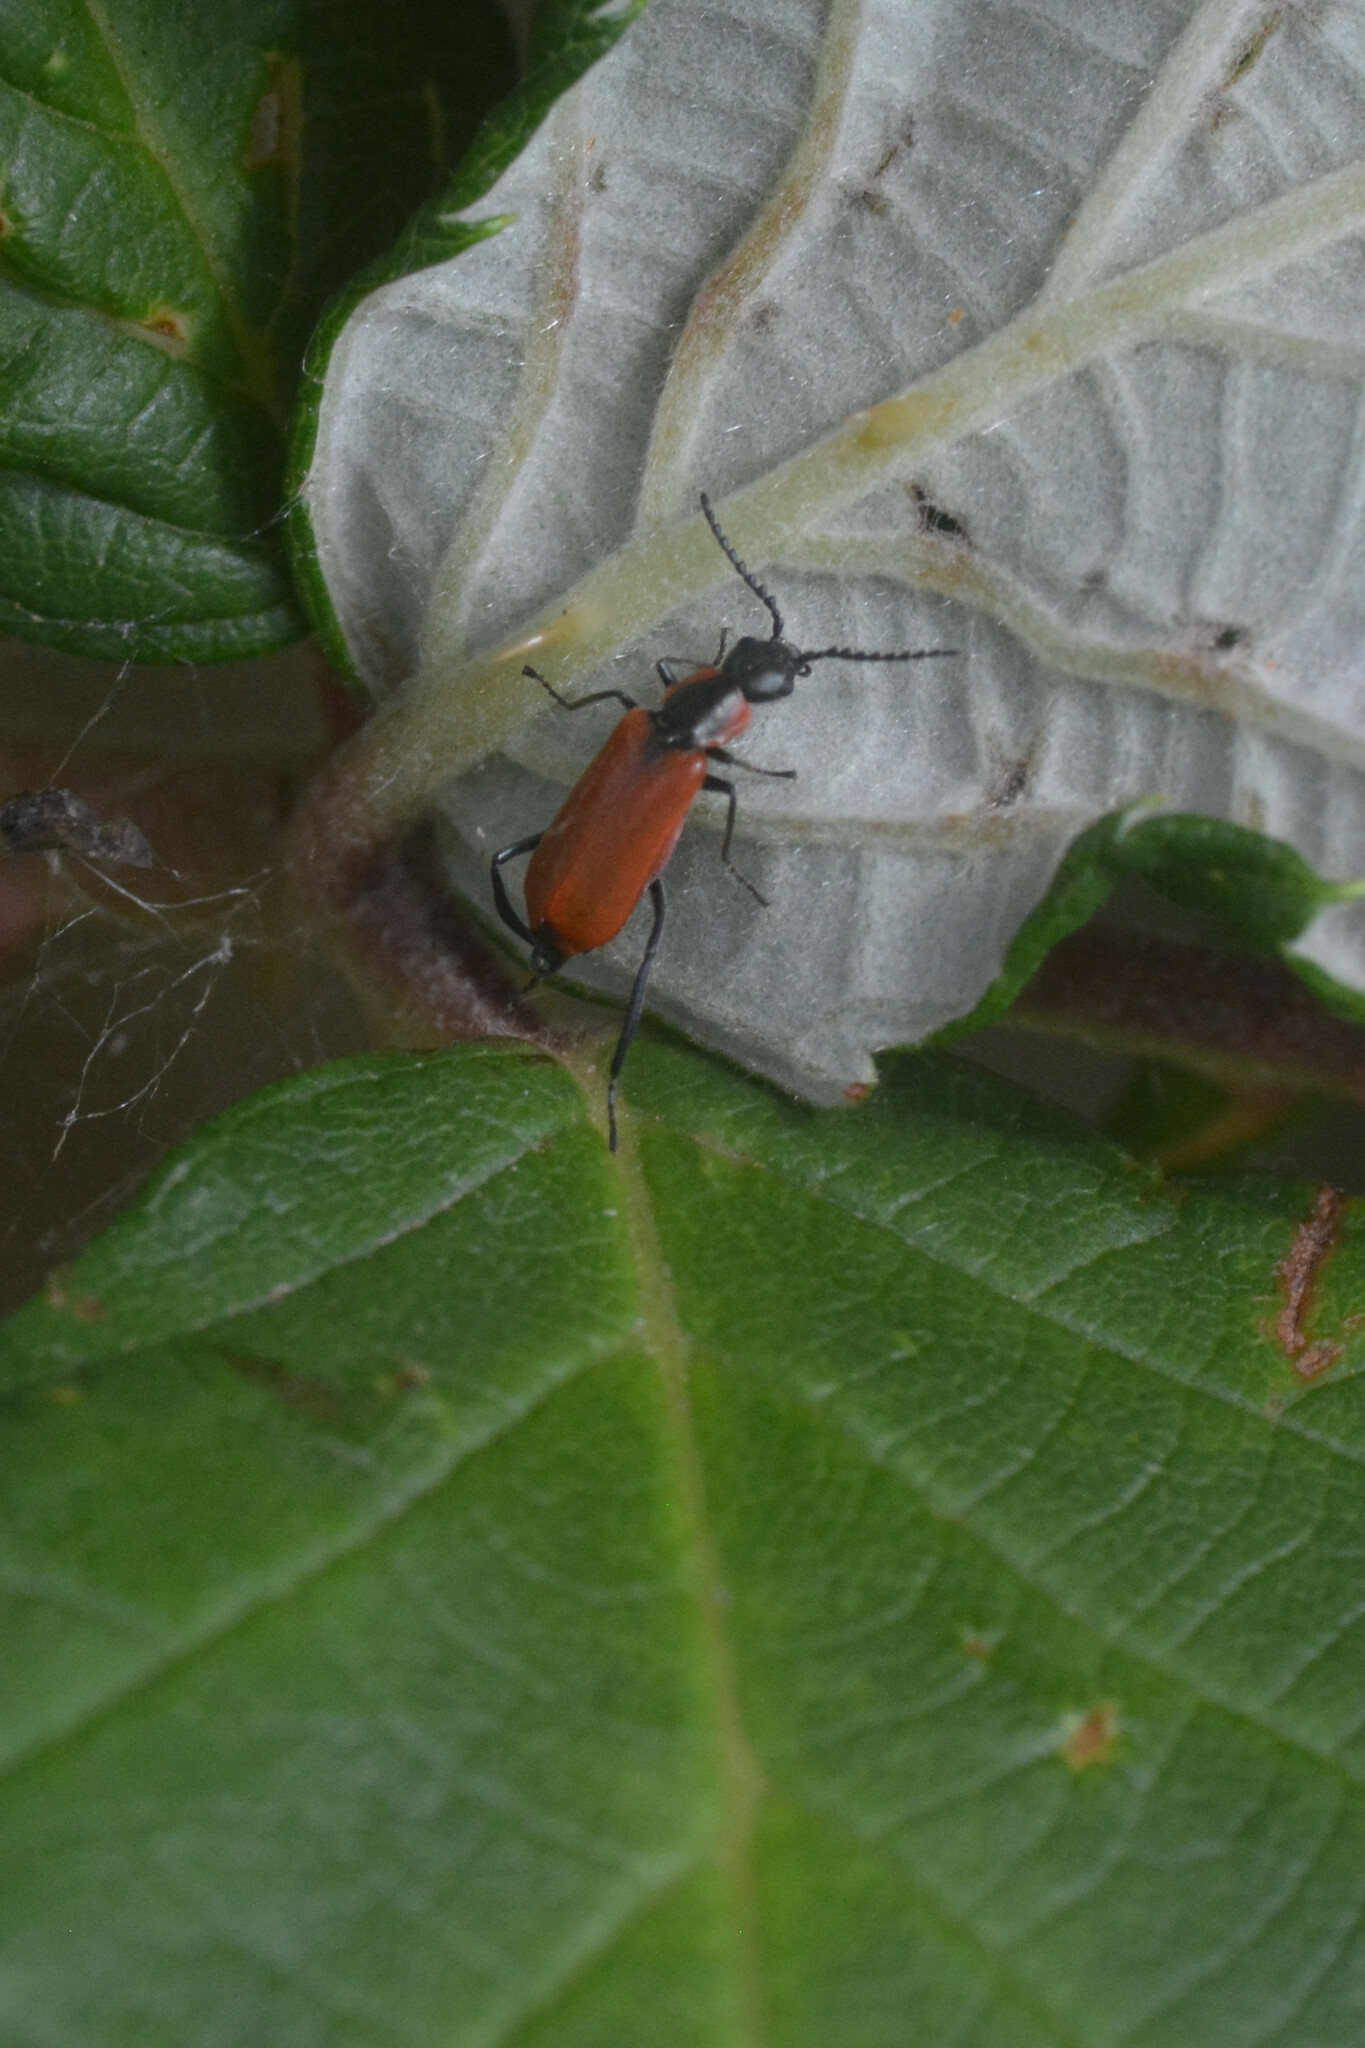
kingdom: Animalia
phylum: Arthropoda
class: Insecta
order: Coleoptera
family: Melyridae
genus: Anthocomus
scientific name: Anthocomus rufus
